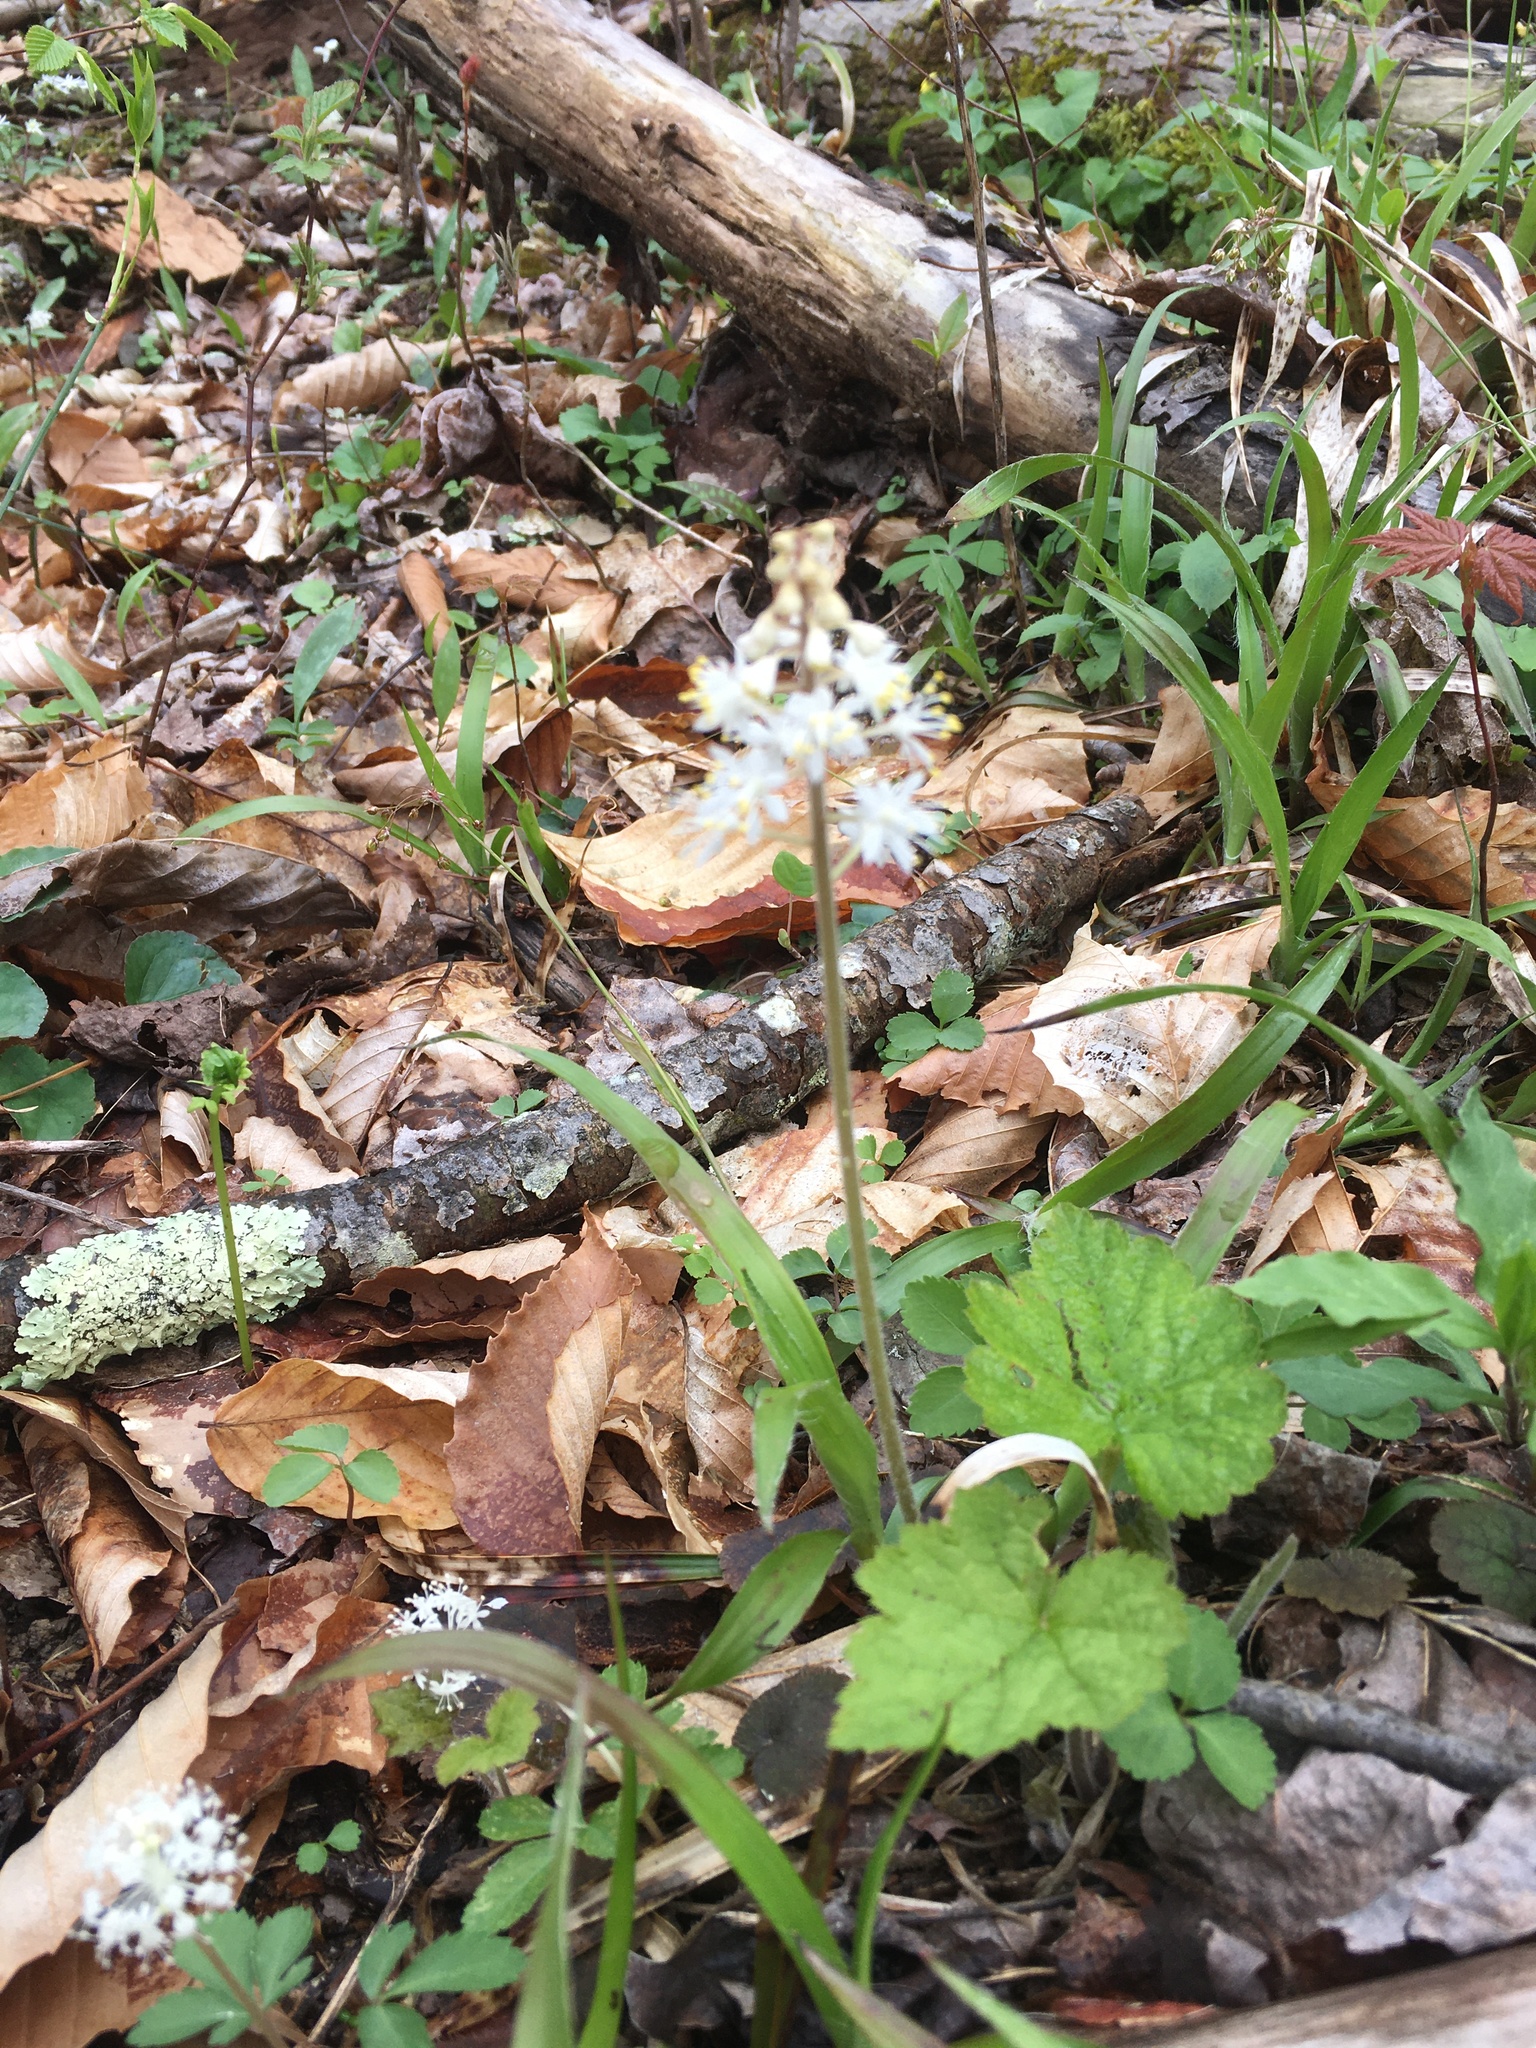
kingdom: Plantae
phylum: Tracheophyta
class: Magnoliopsida
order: Saxifragales
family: Saxifragaceae
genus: Tiarella
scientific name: Tiarella stolonifera
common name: Stoloniferous foamflower
